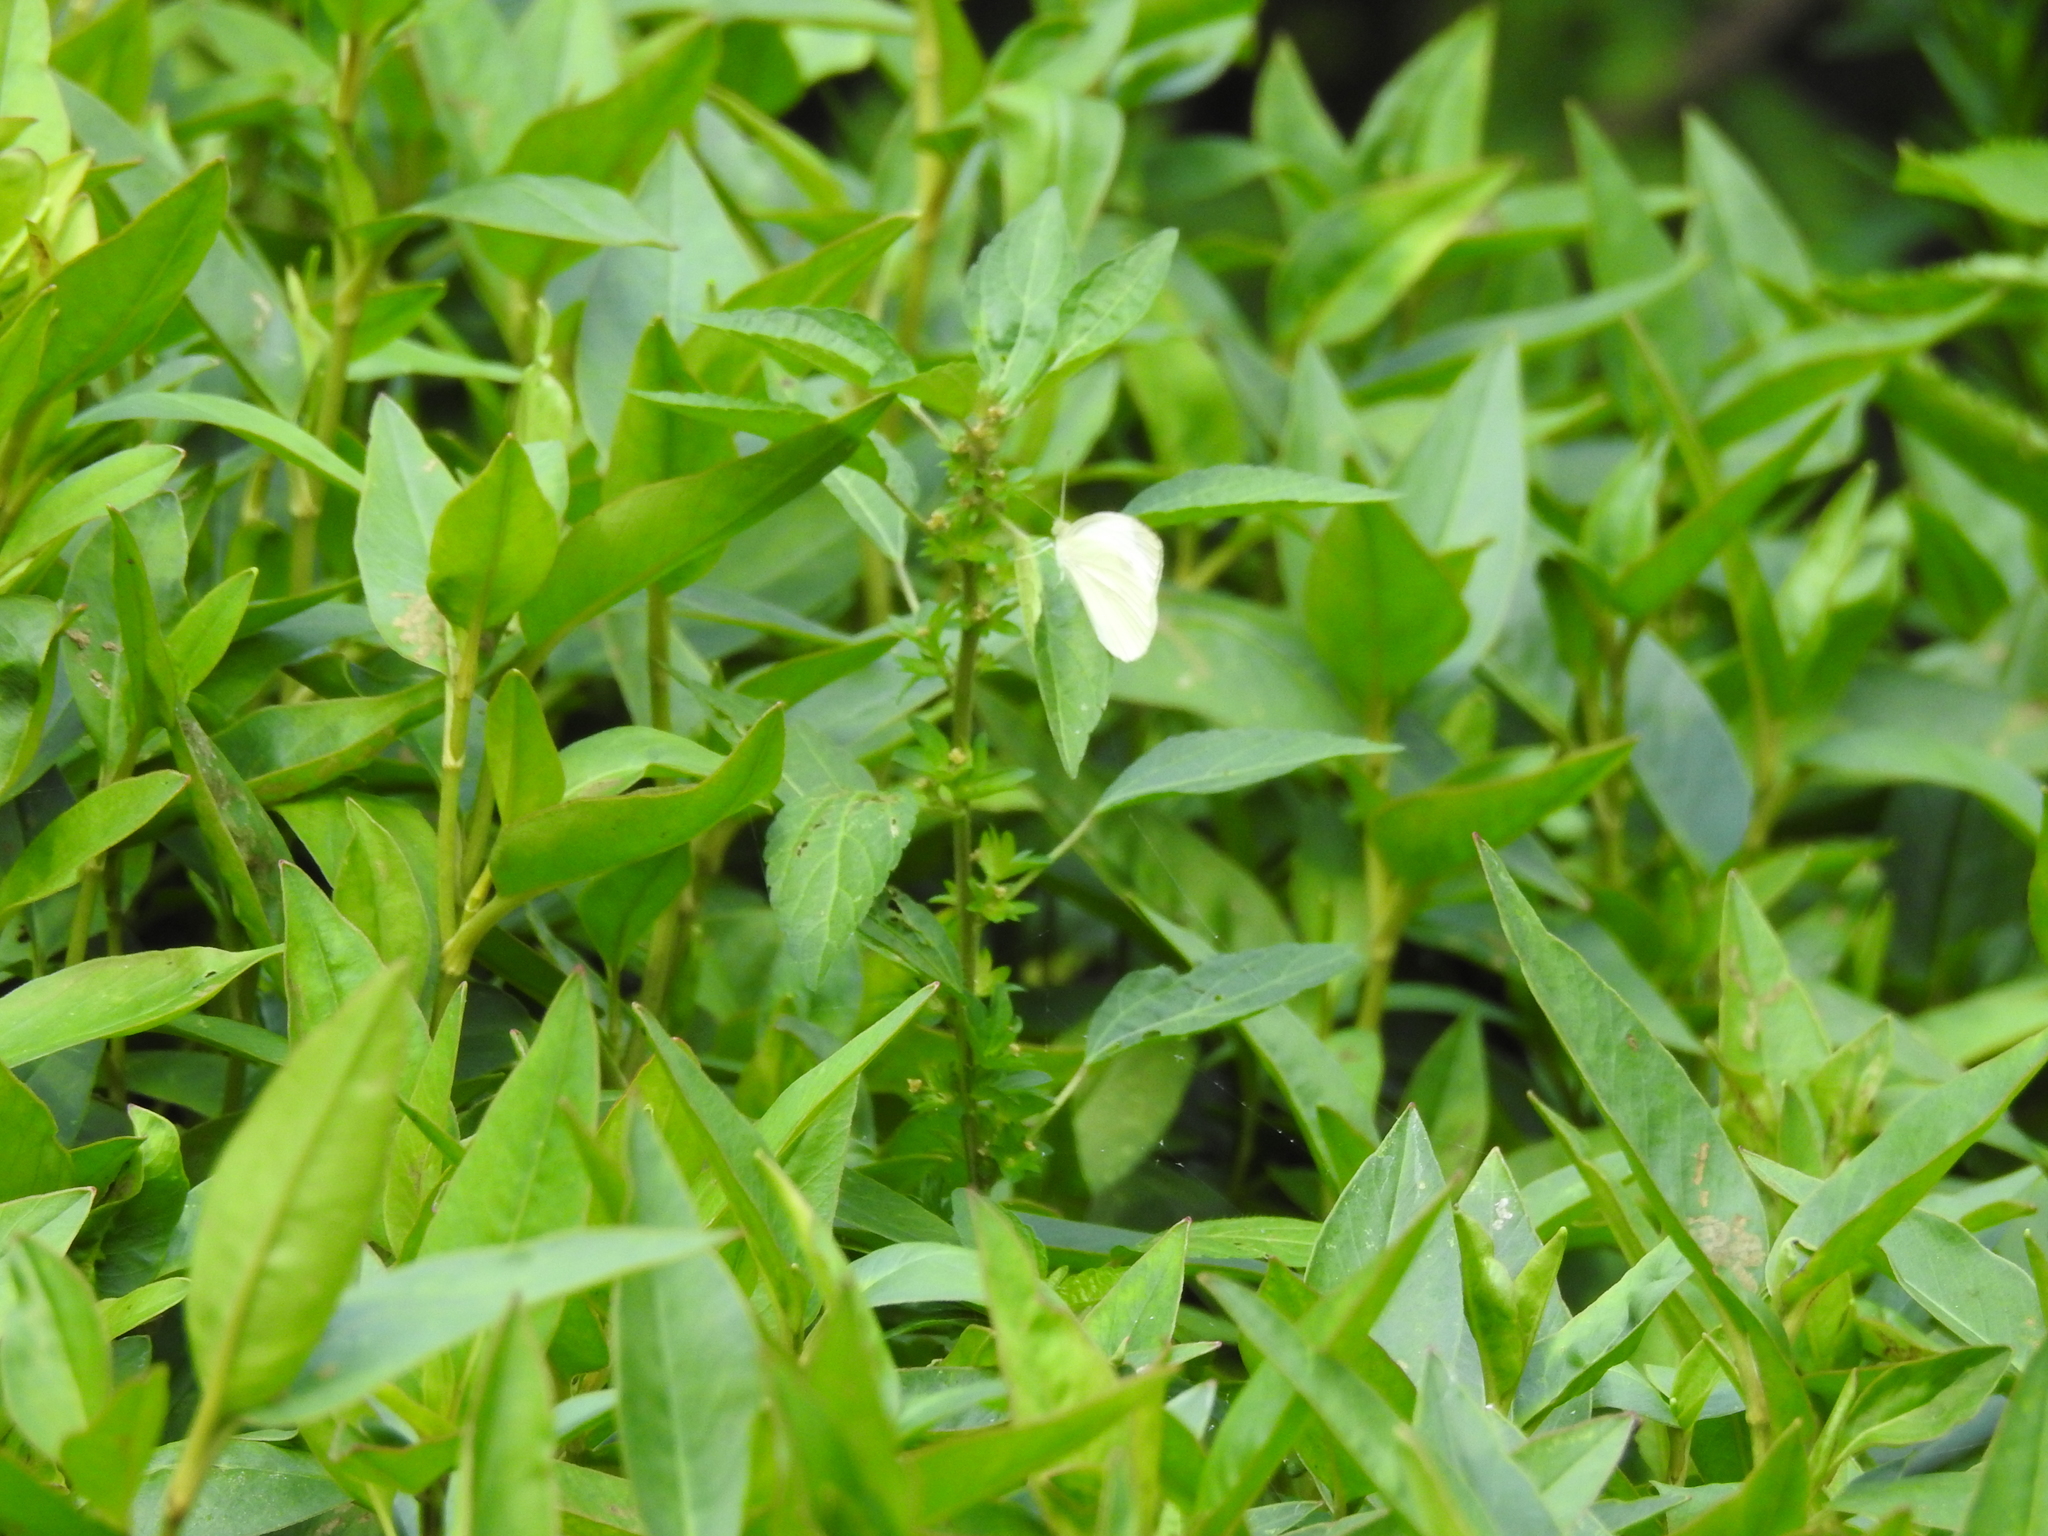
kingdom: Animalia
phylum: Arthropoda
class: Insecta
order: Lepidoptera
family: Pieridae
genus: Pieris
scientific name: Pieris rapae
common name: Small white
